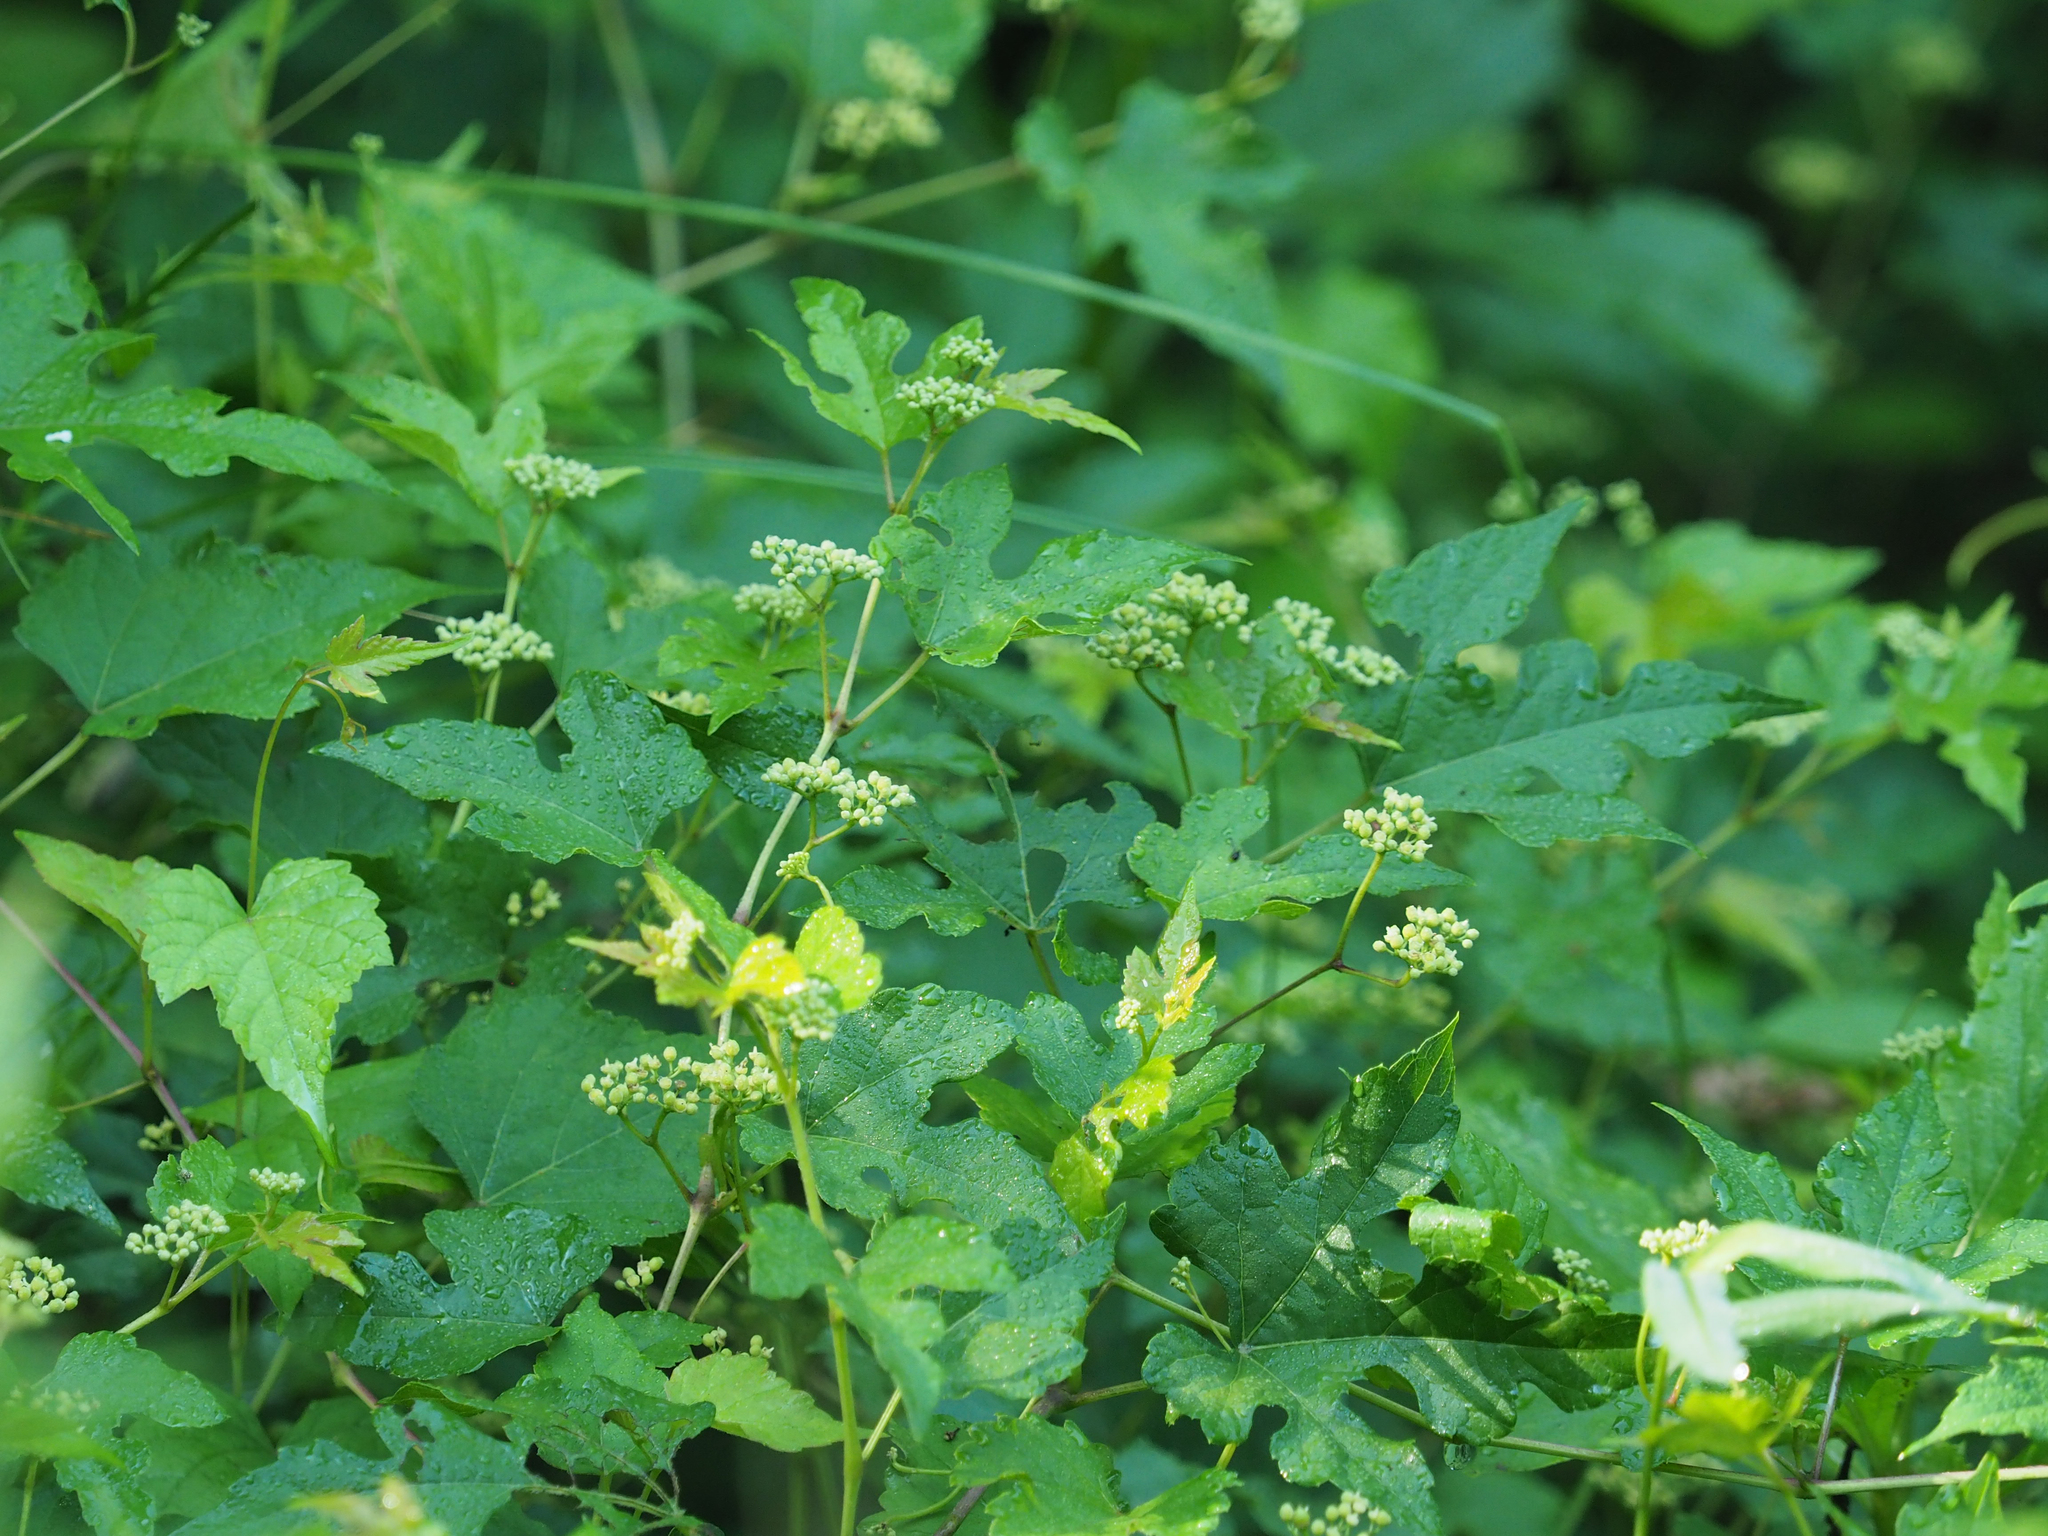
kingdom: Plantae
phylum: Tracheophyta
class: Magnoliopsida
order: Vitales
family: Vitaceae
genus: Ampelopsis
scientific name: Ampelopsis glandulosa
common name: Amur peppervine
